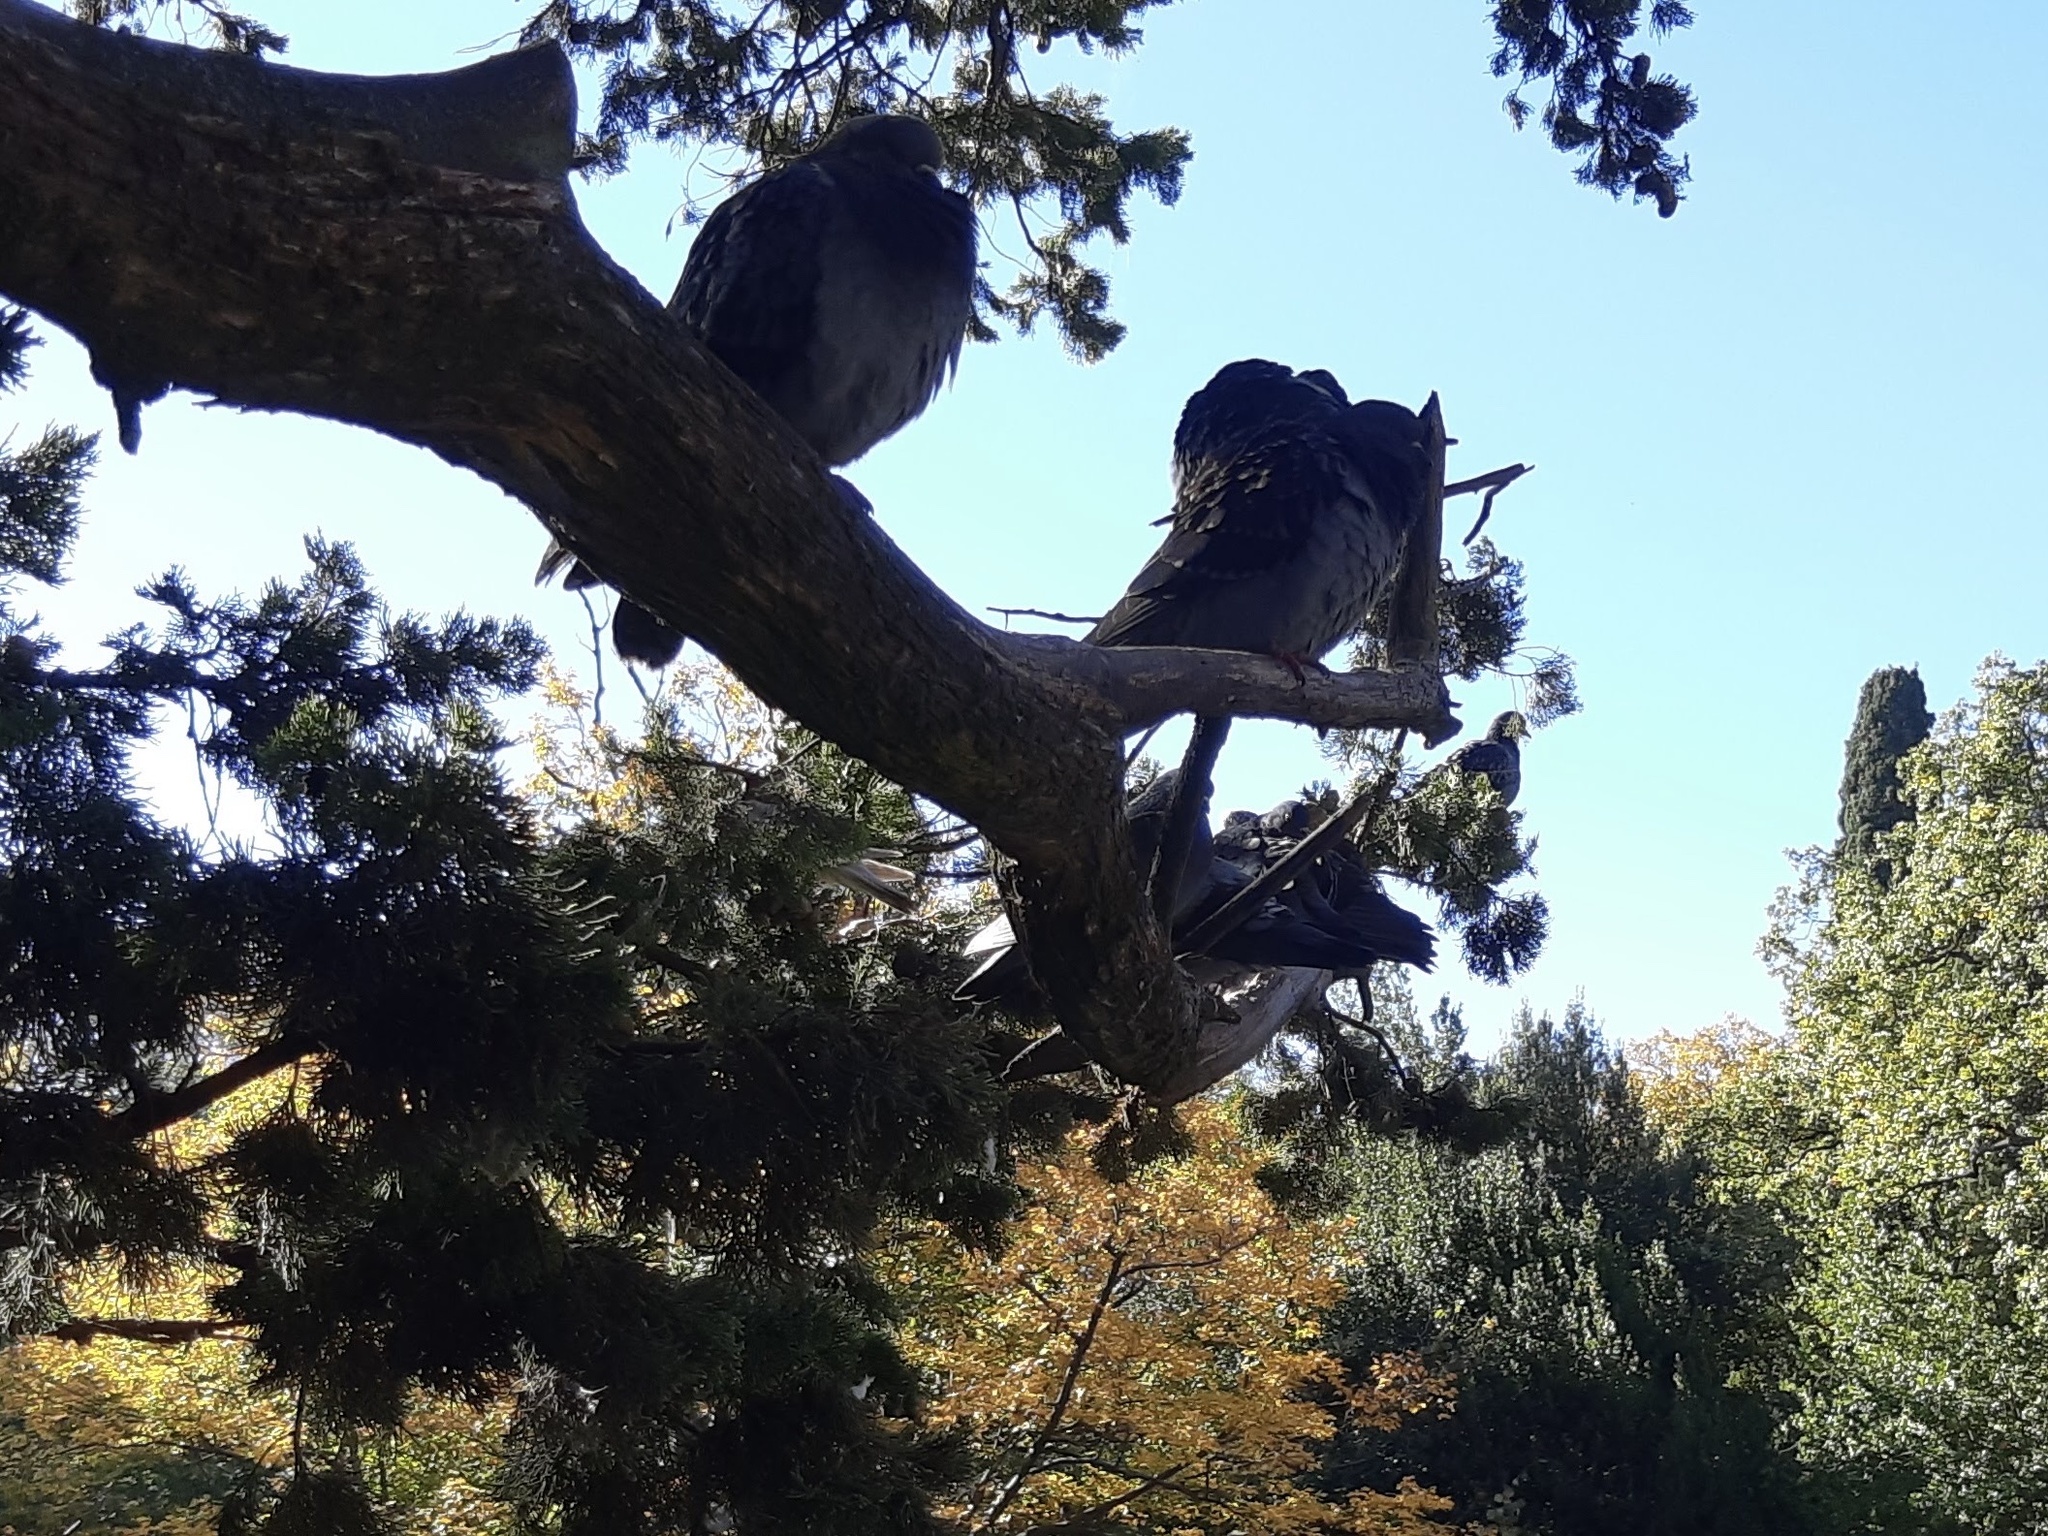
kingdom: Animalia
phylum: Chordata
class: Aves
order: Columbiformes
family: Columbidae
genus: Columba
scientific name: Columba livia
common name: Rock pigeon
